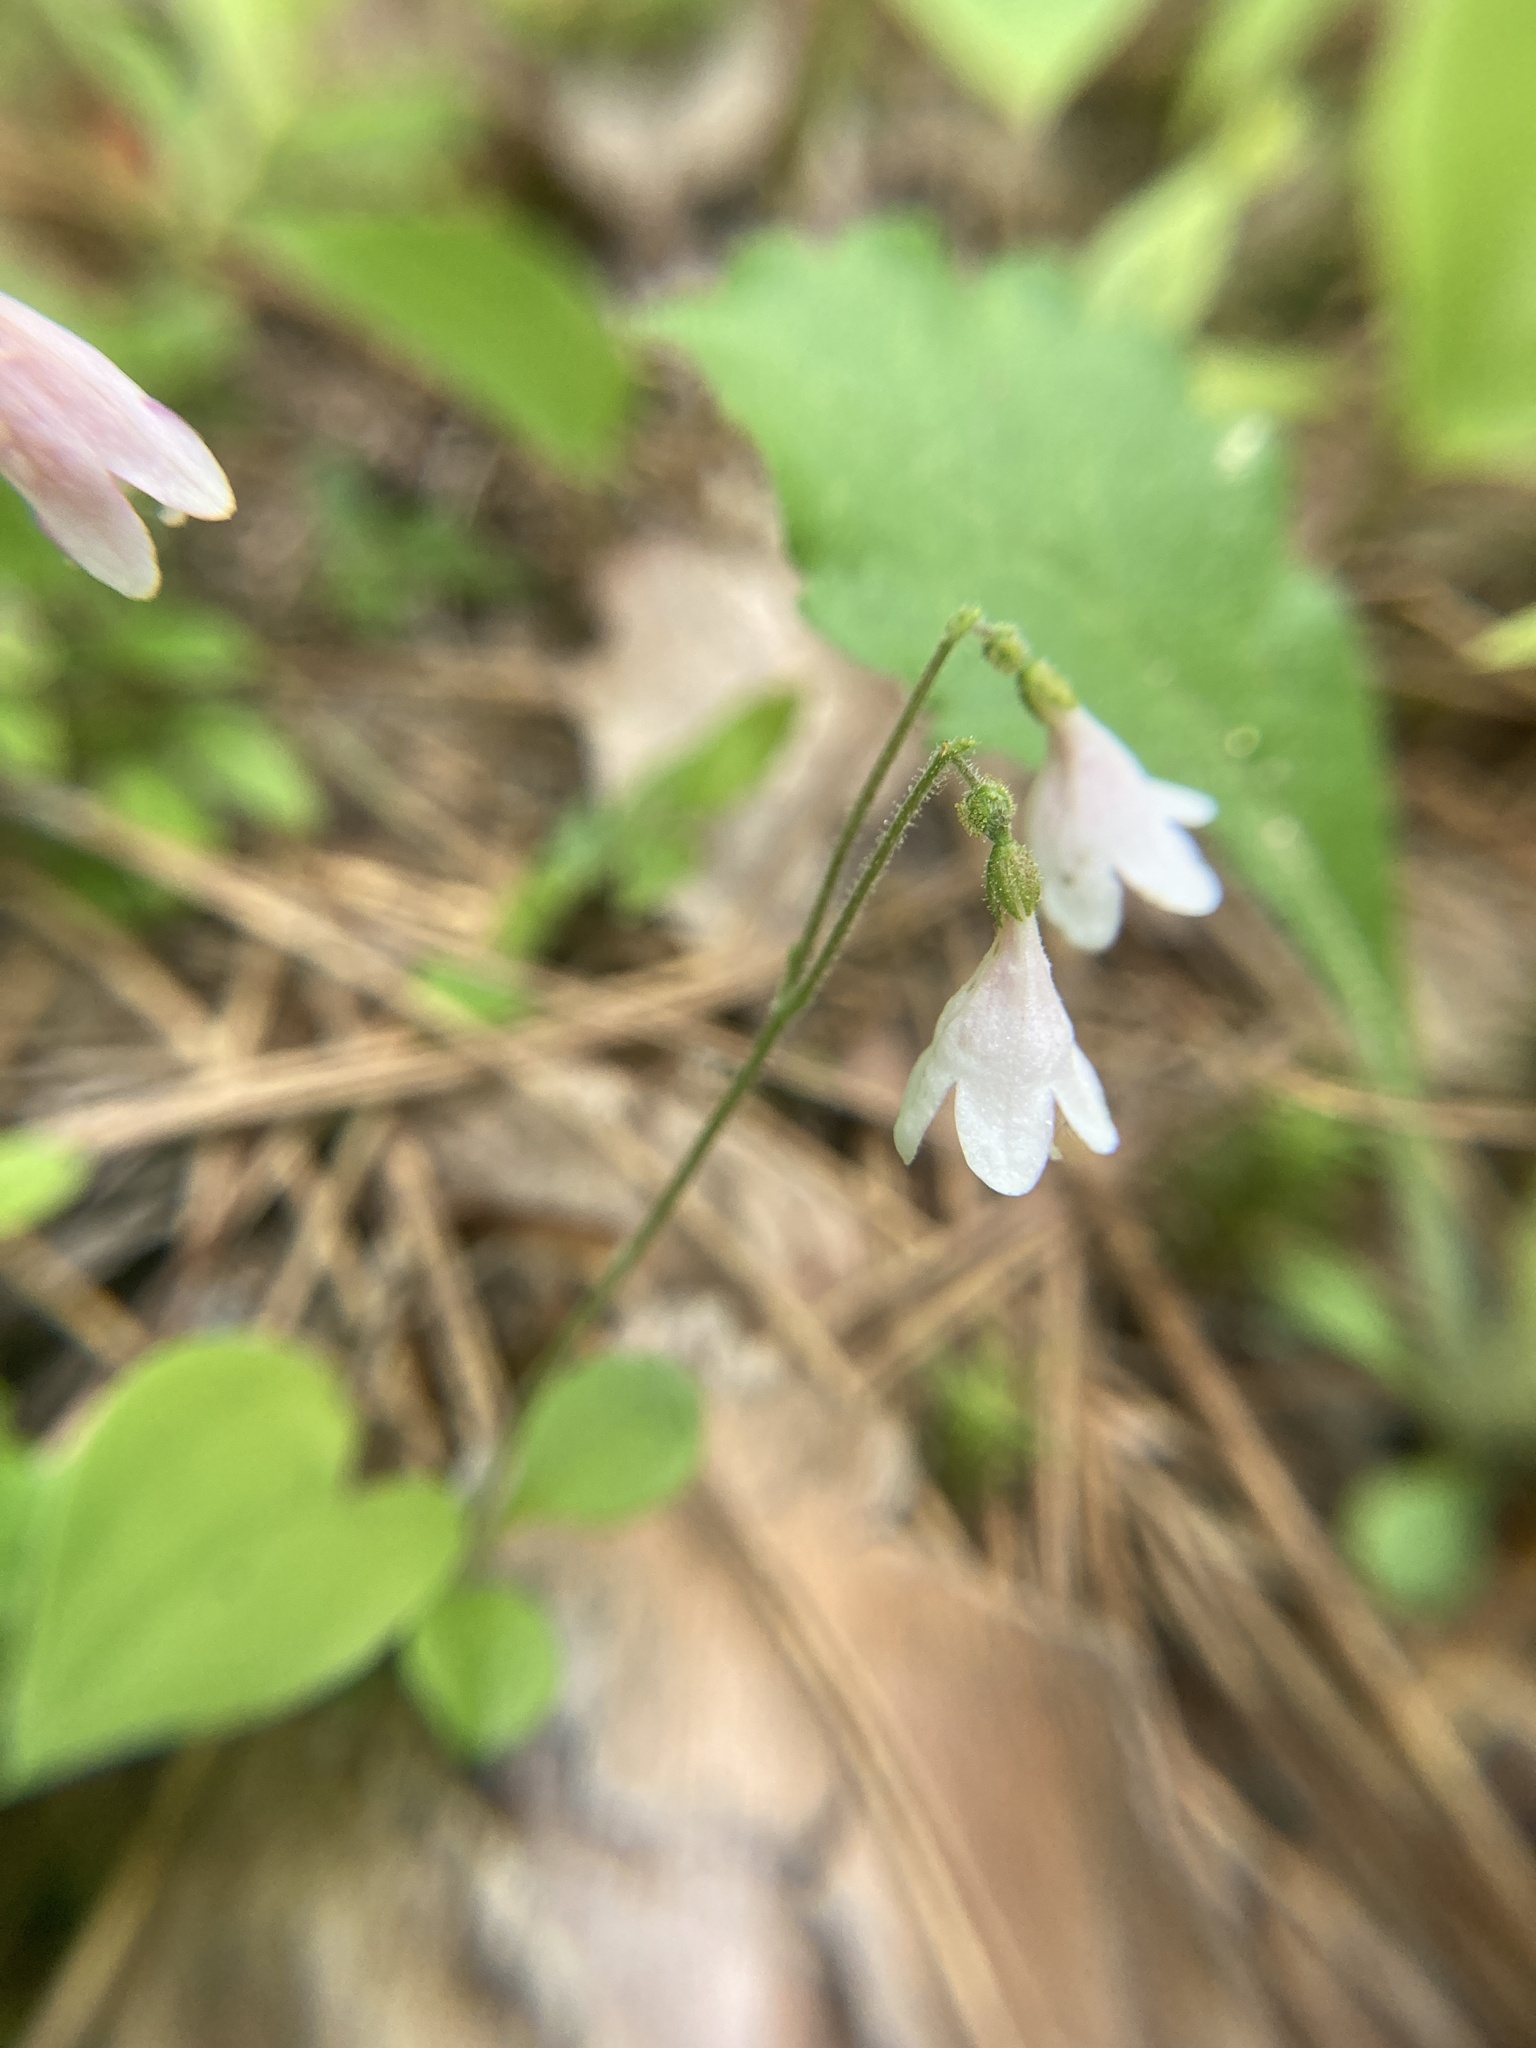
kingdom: Plantae
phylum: Tracheophyta
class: Magnoliopsida
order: Dipsacales
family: Caprifoliaceae
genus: Linnaea
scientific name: Linnaea borealis
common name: Twinflower
